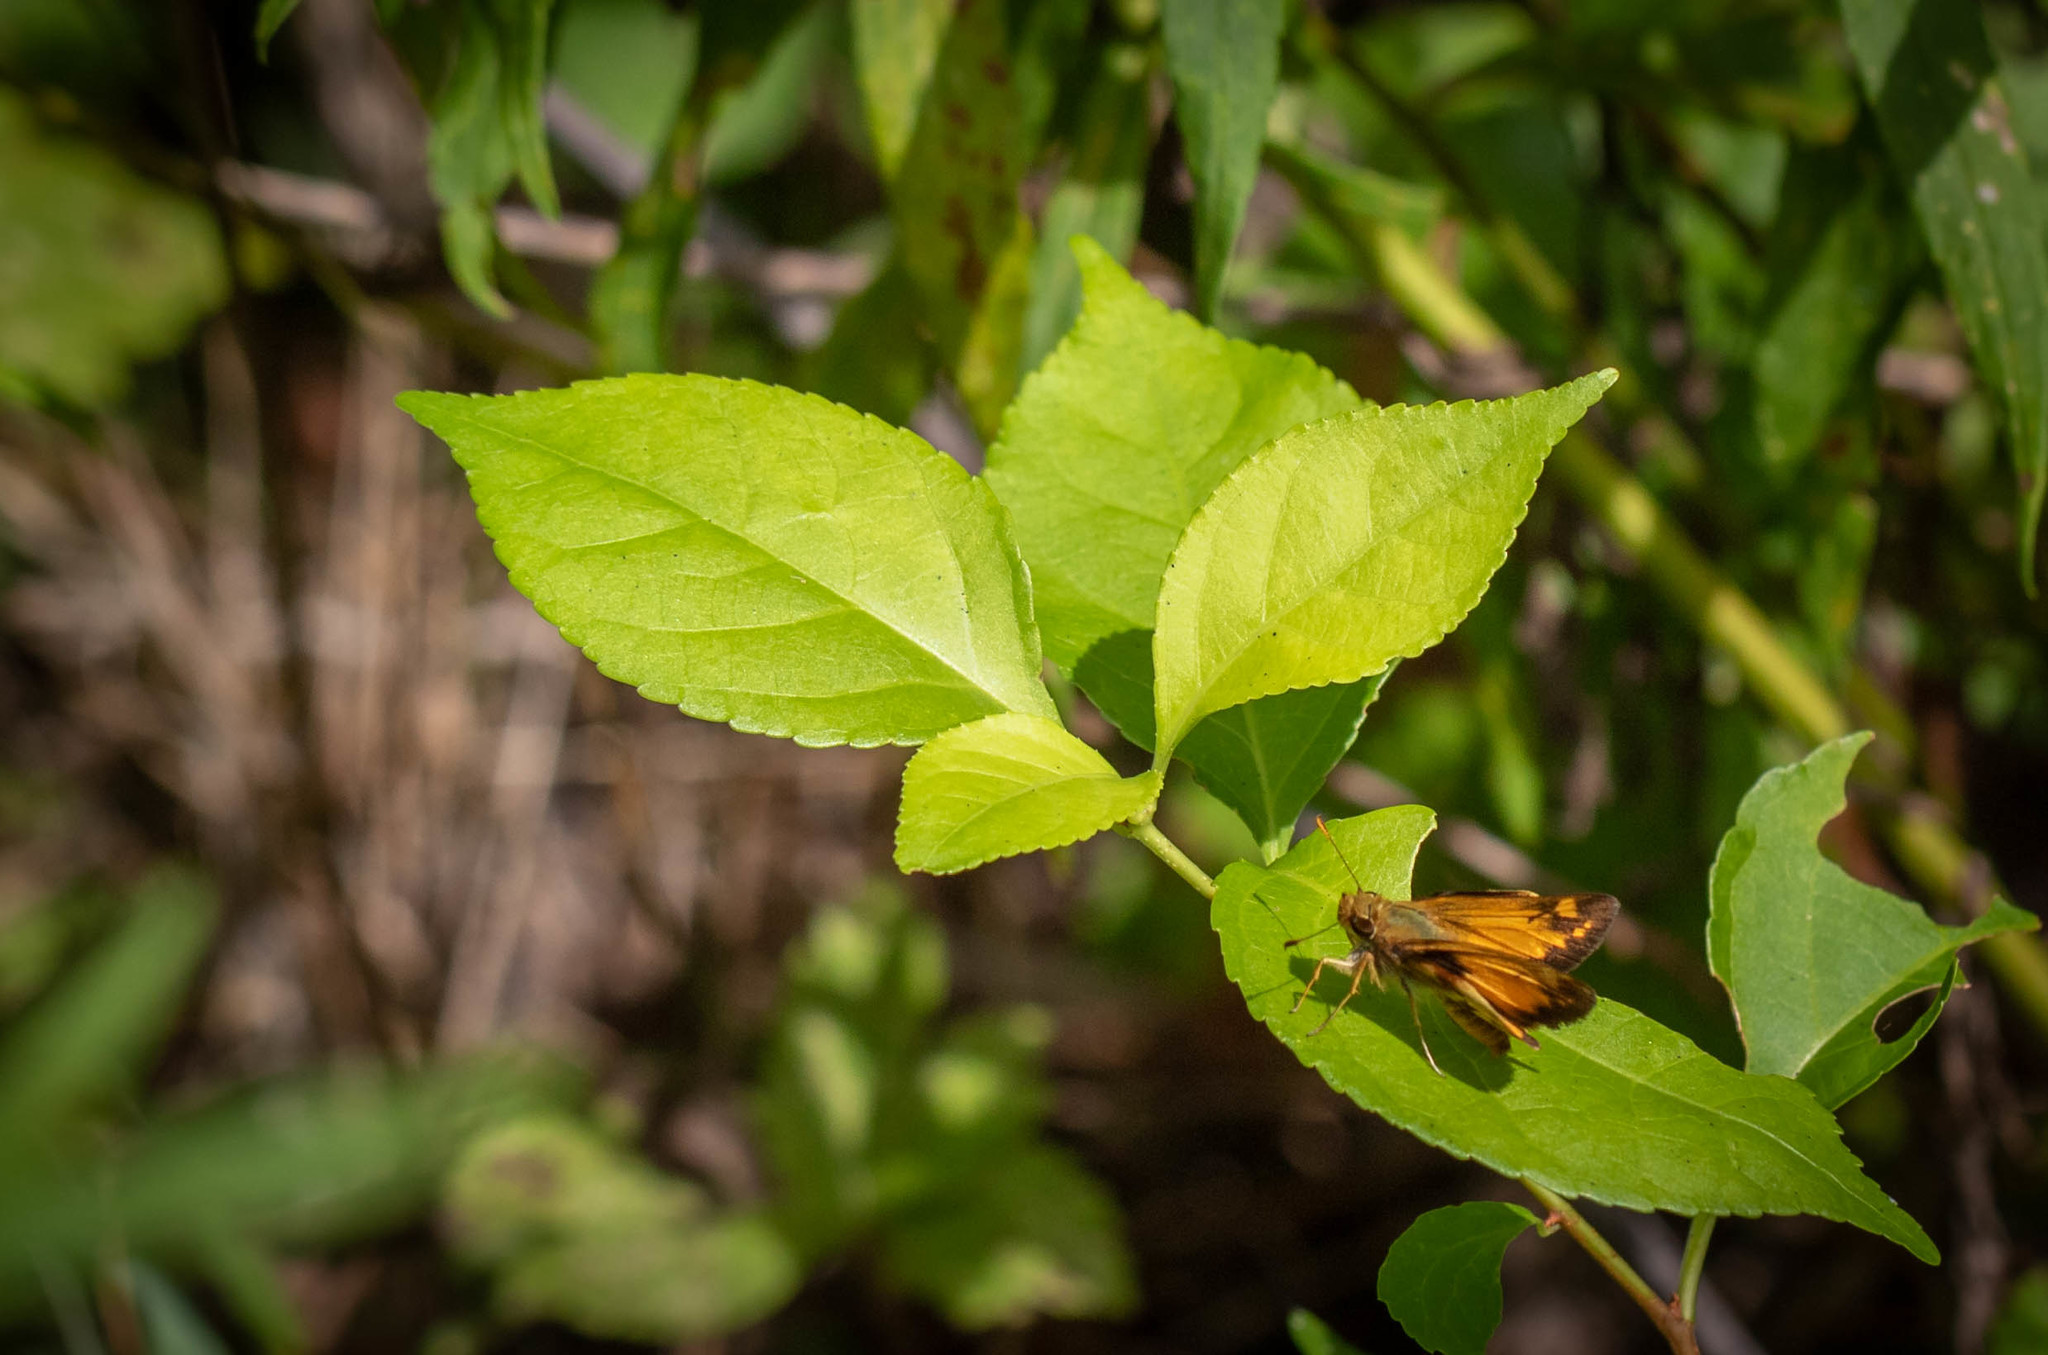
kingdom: Animalia
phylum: Arthropoda
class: Insecta
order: Lepidoptera
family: Hesperiidae
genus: Lon
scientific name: Lon zabulon
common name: Zabulon skipper
